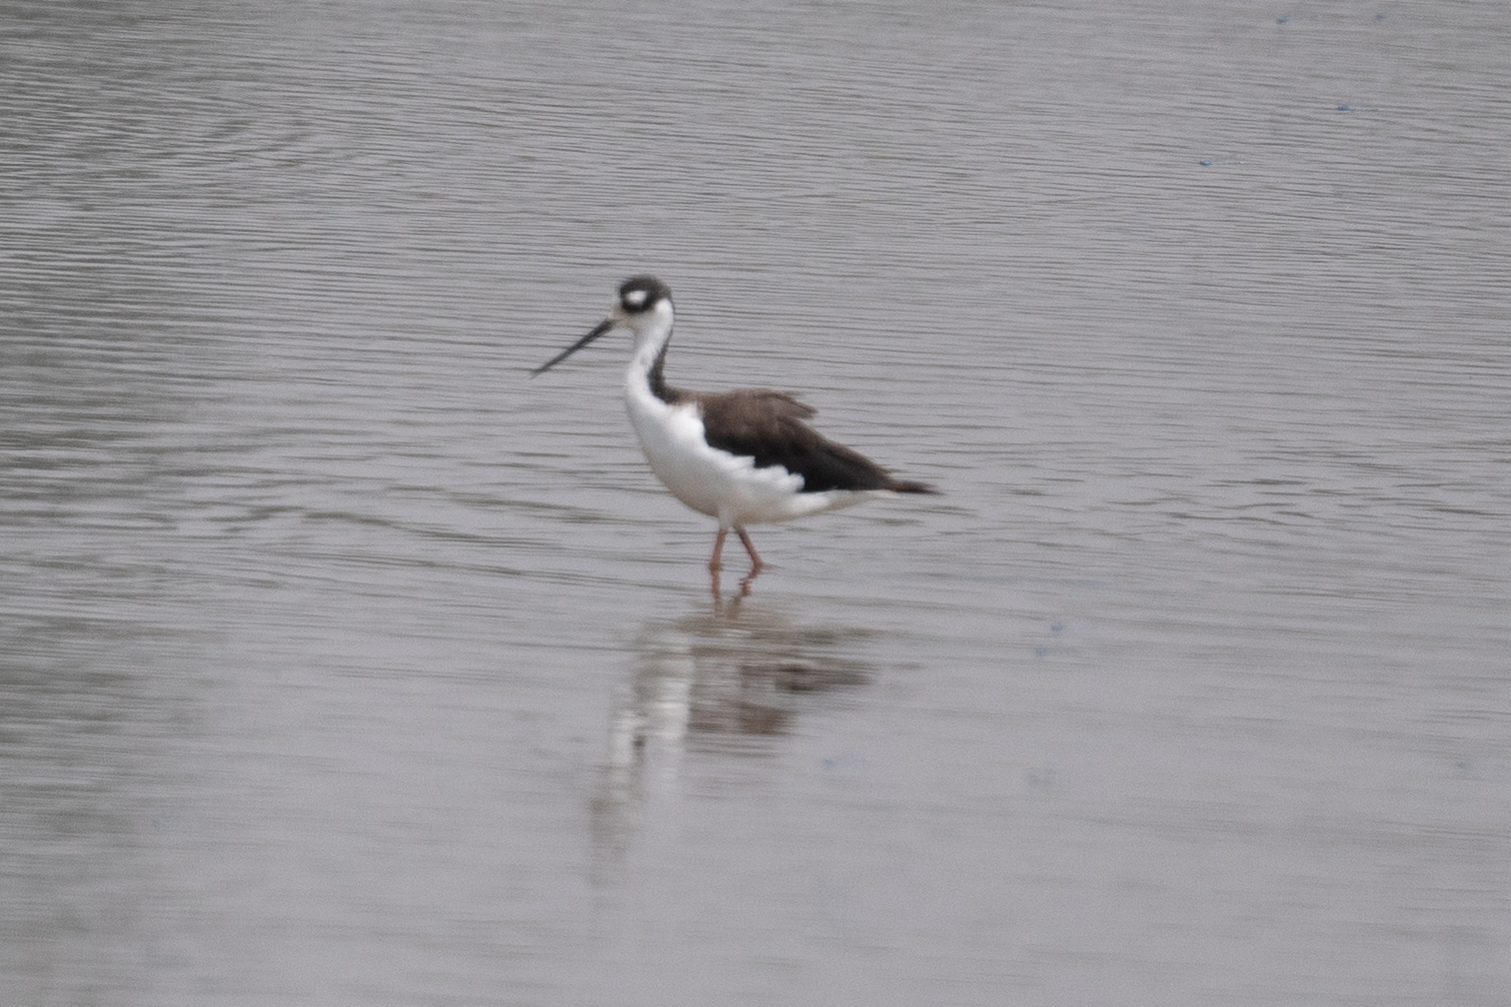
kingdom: Animalia
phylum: Chordata
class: Aves
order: Charadriiformes
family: Recurvirostridae
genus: Himantopus
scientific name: Himantopus mexicanus
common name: Black-necked stilt
